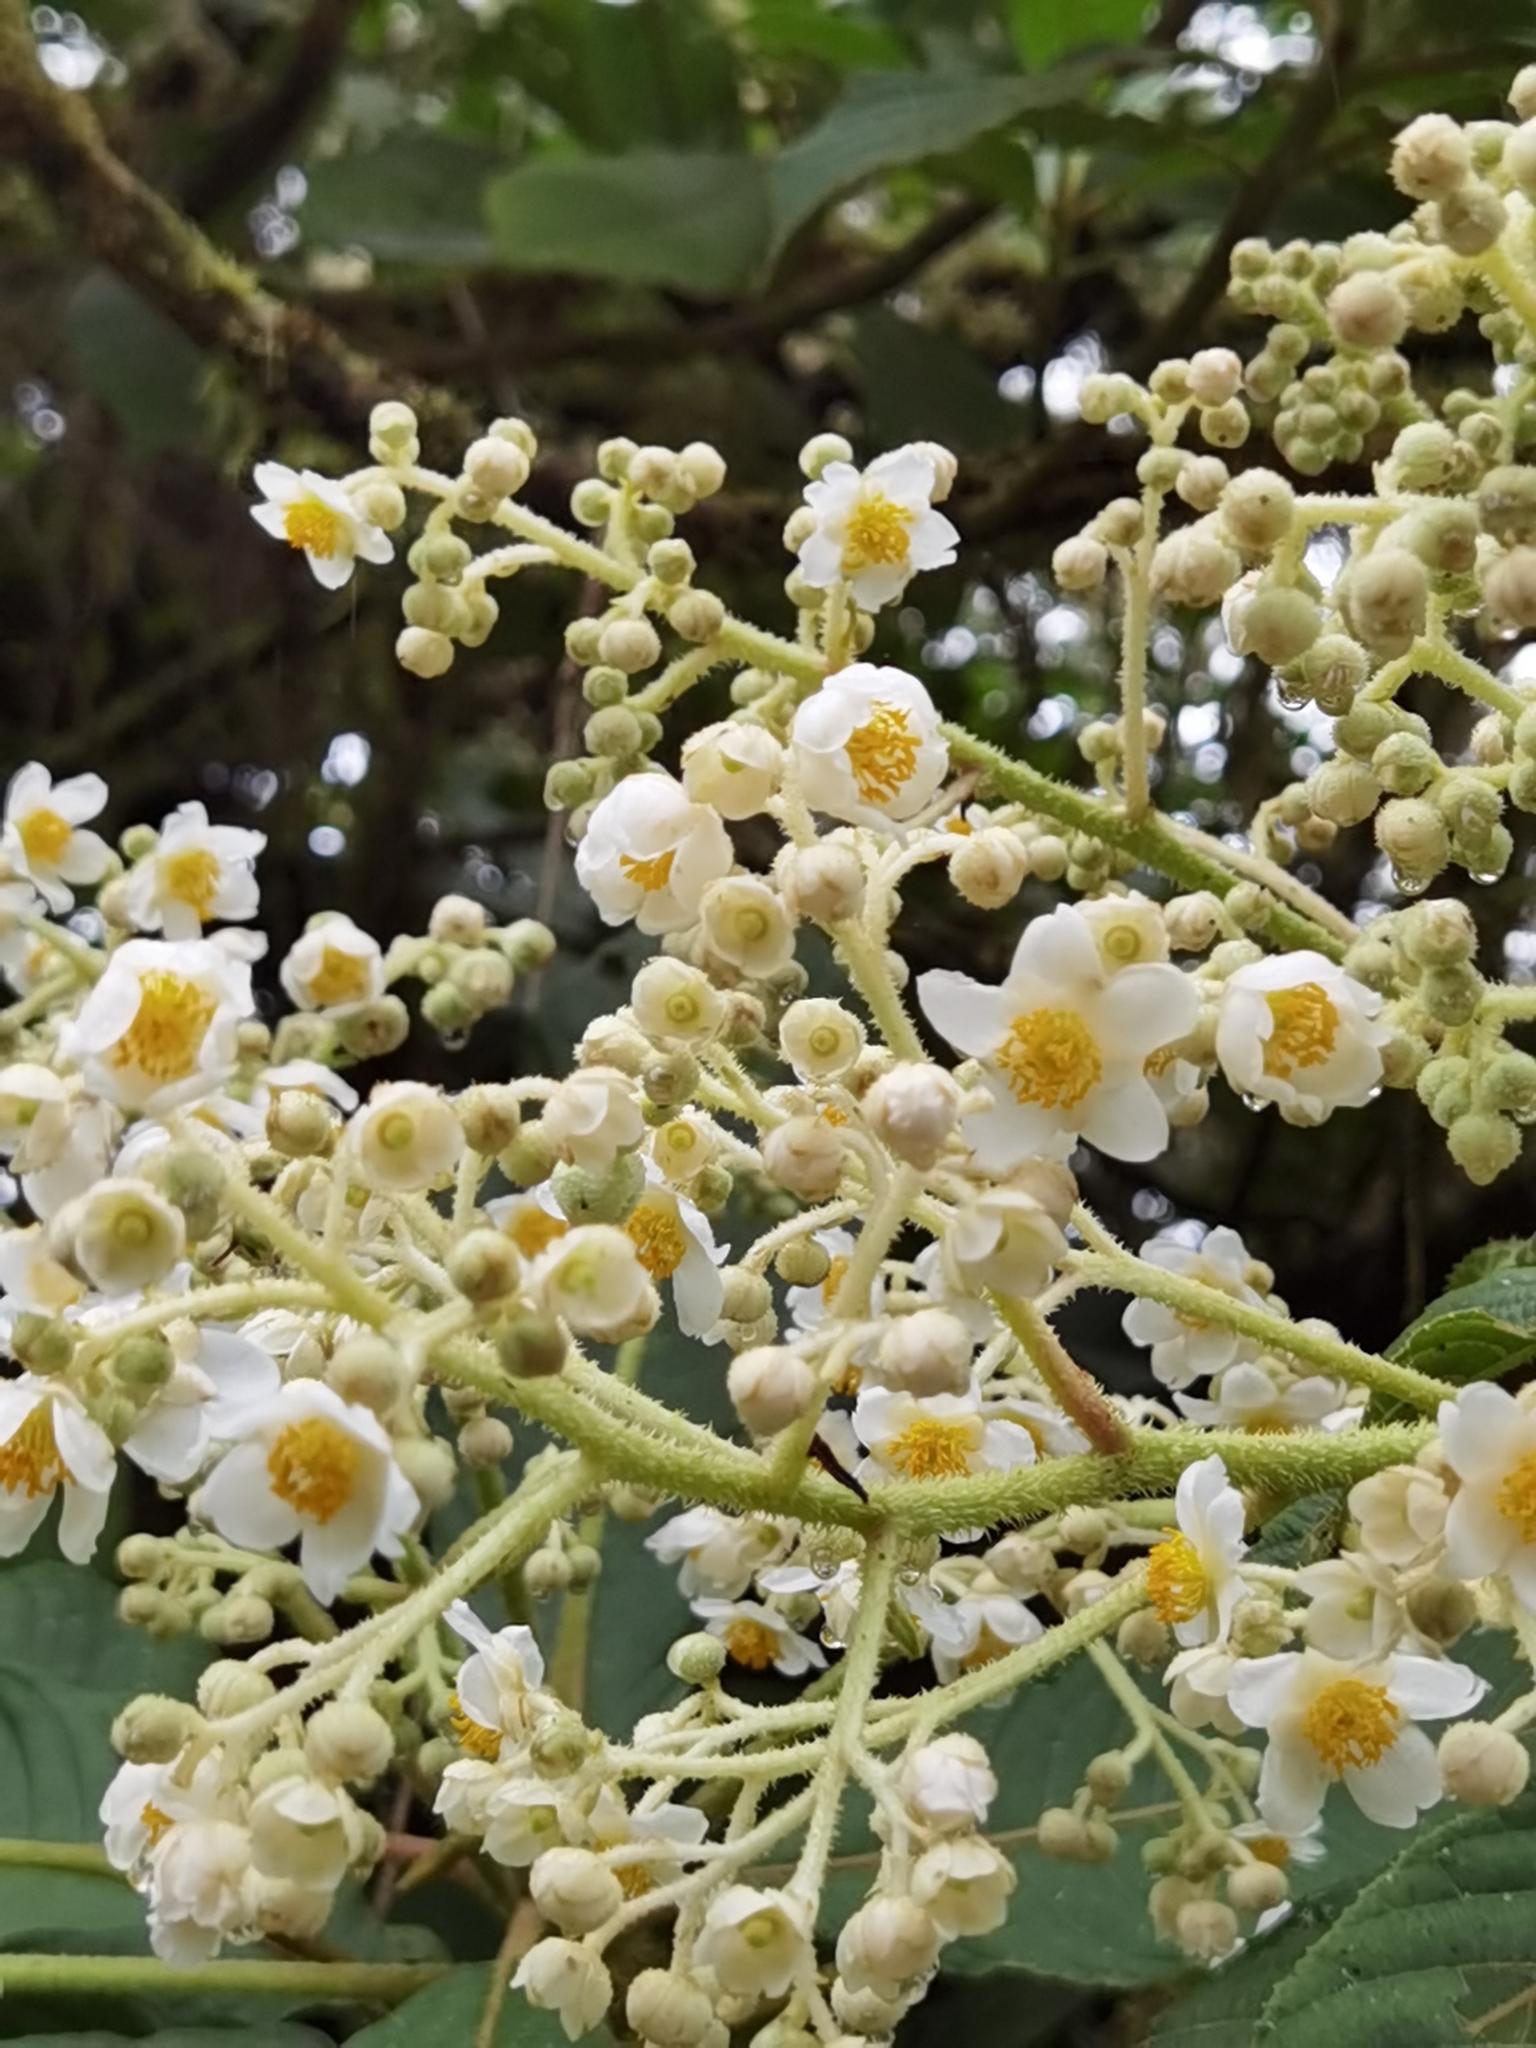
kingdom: Plantae
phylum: Tracheophyta
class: Magnoliopsida
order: Ericales
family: Actinidiaceae
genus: Saurauia
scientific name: Saurauia montana
